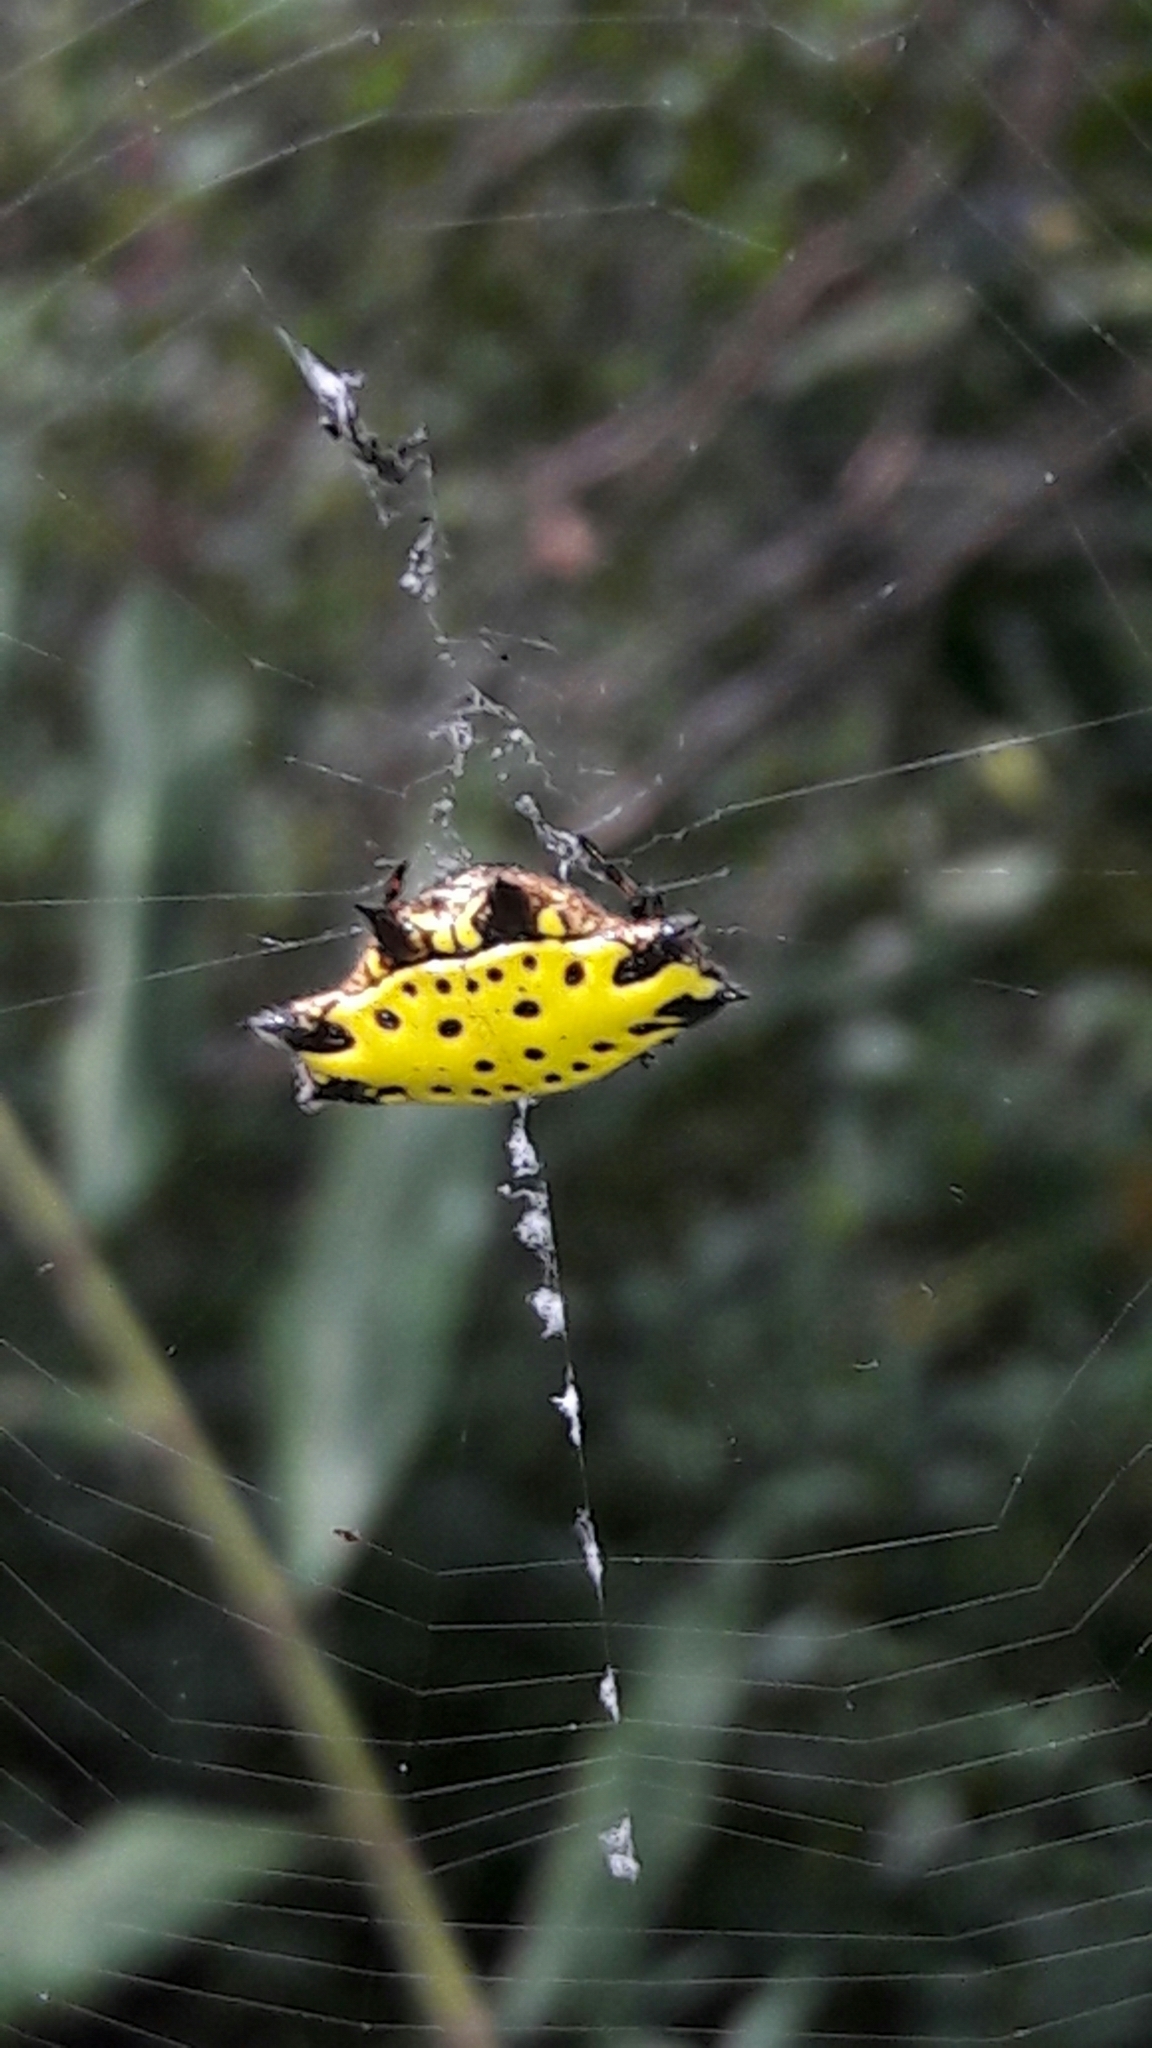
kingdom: Animalia
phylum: Arthropoda
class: Arachnida
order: Araneae
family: Araneidae
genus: Gasteracantha
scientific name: Gasteracantha cancriformis
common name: Orb weavers
